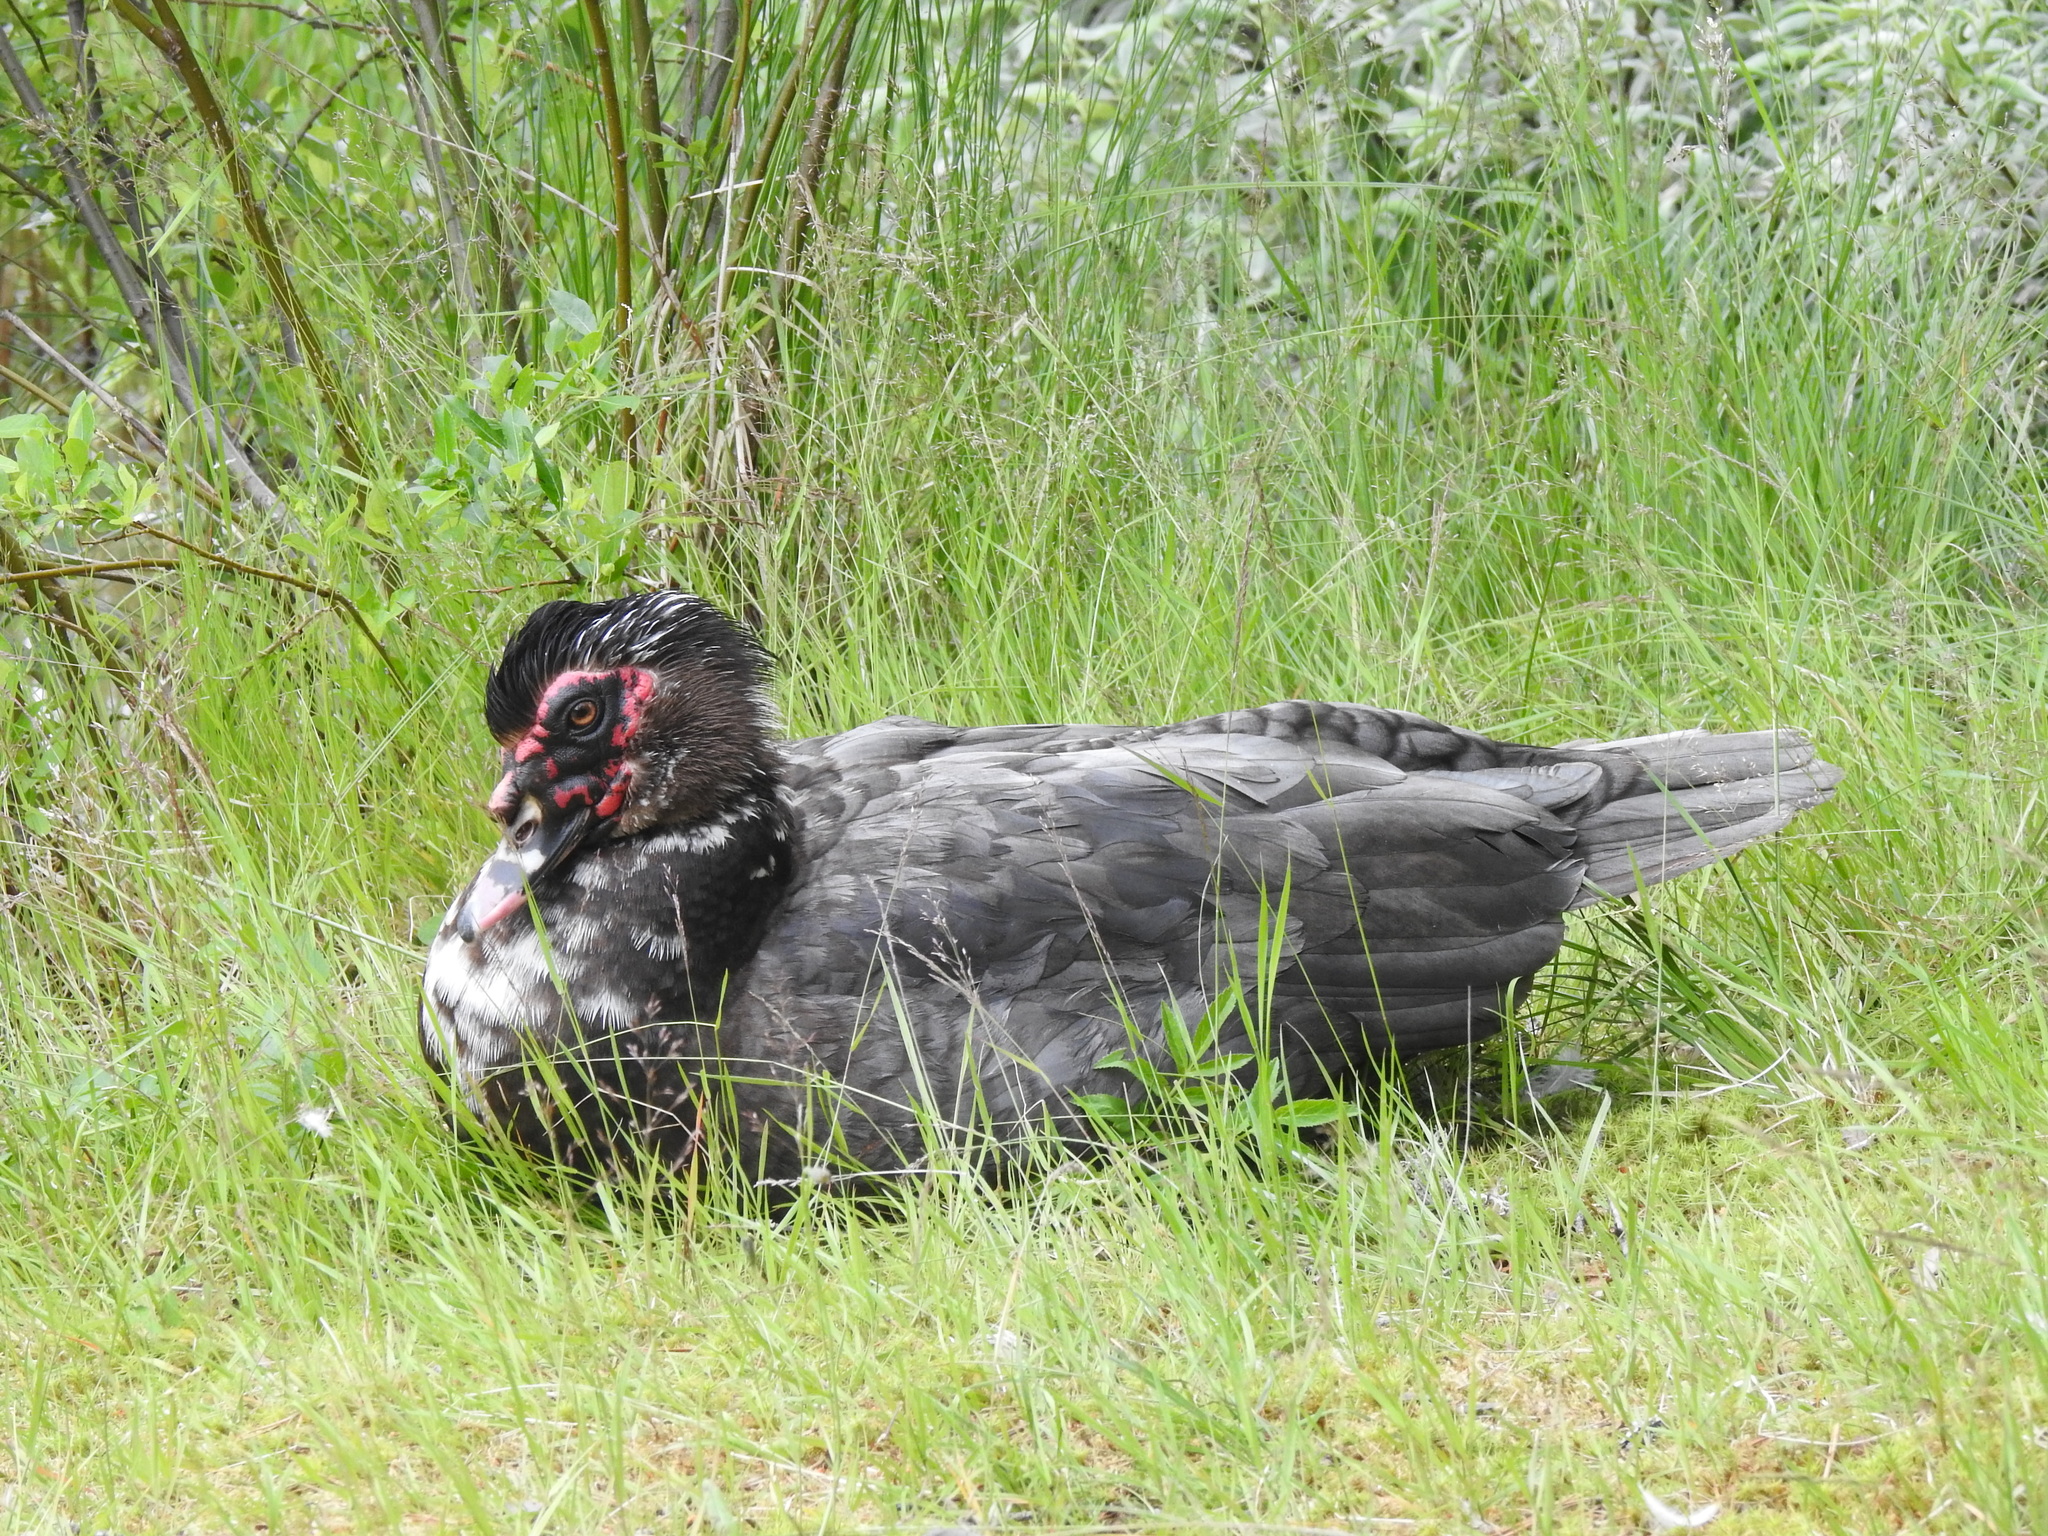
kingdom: Animalia
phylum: Chordata
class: Aves
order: Anseriformes
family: Anatidae
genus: Cairina
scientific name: Cairina moschata
